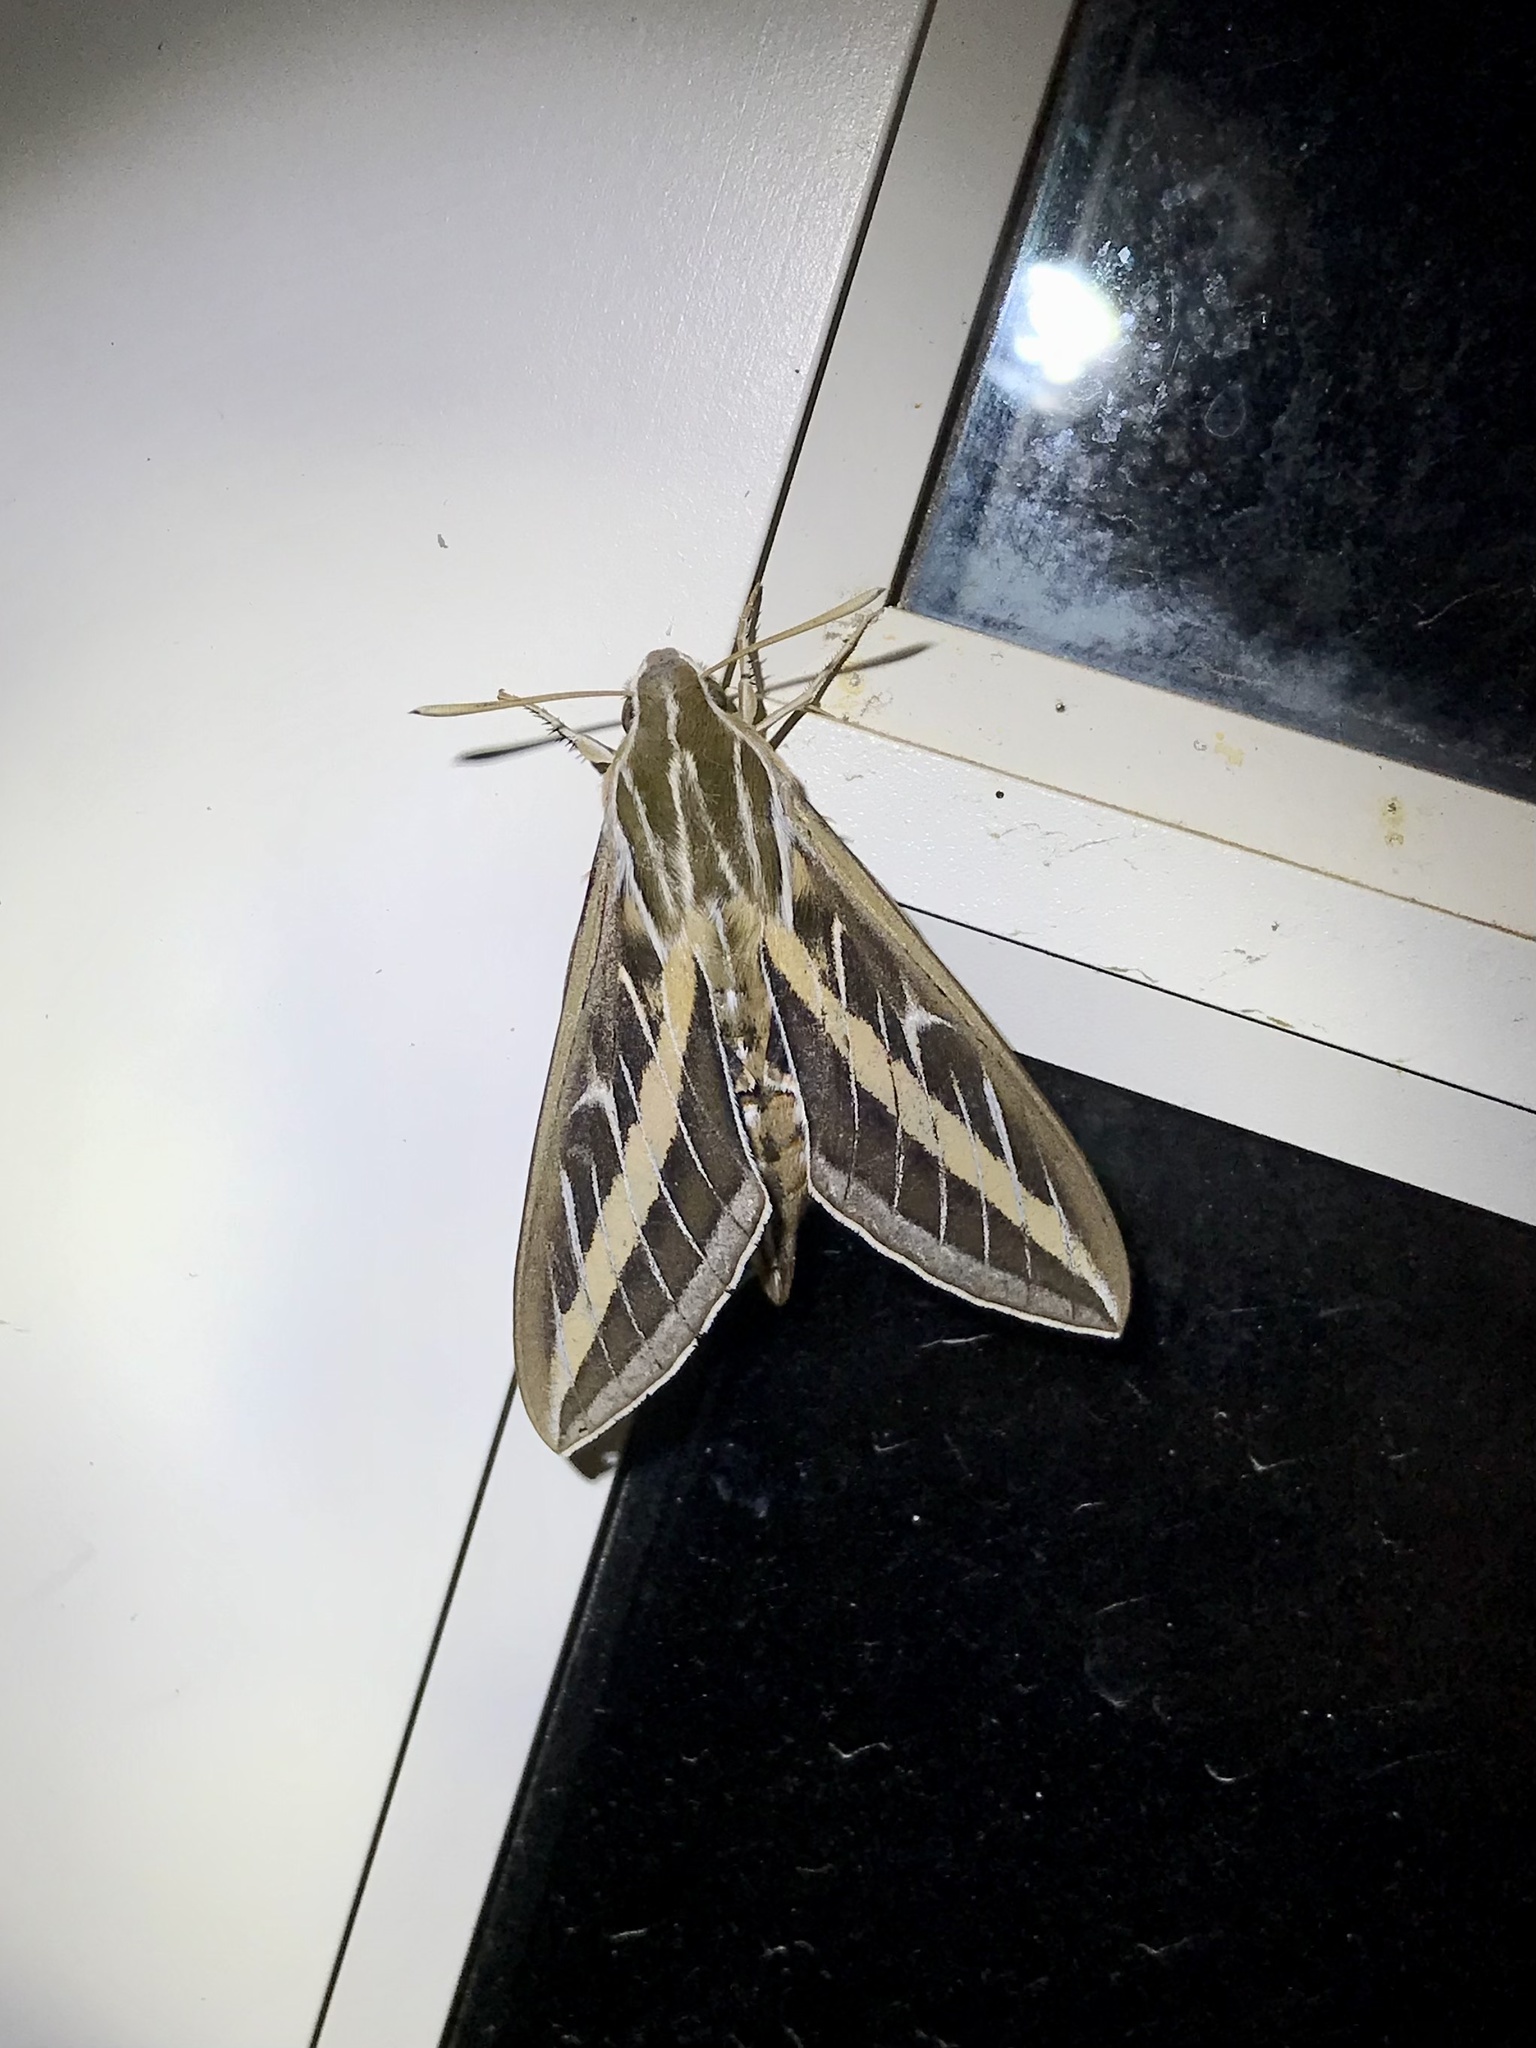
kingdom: Animalia
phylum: Arthropoda
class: Insecta
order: Lepidoptera
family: Sphingidae
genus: Hyles
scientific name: Hyles lineata
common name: White-lined sphinx
